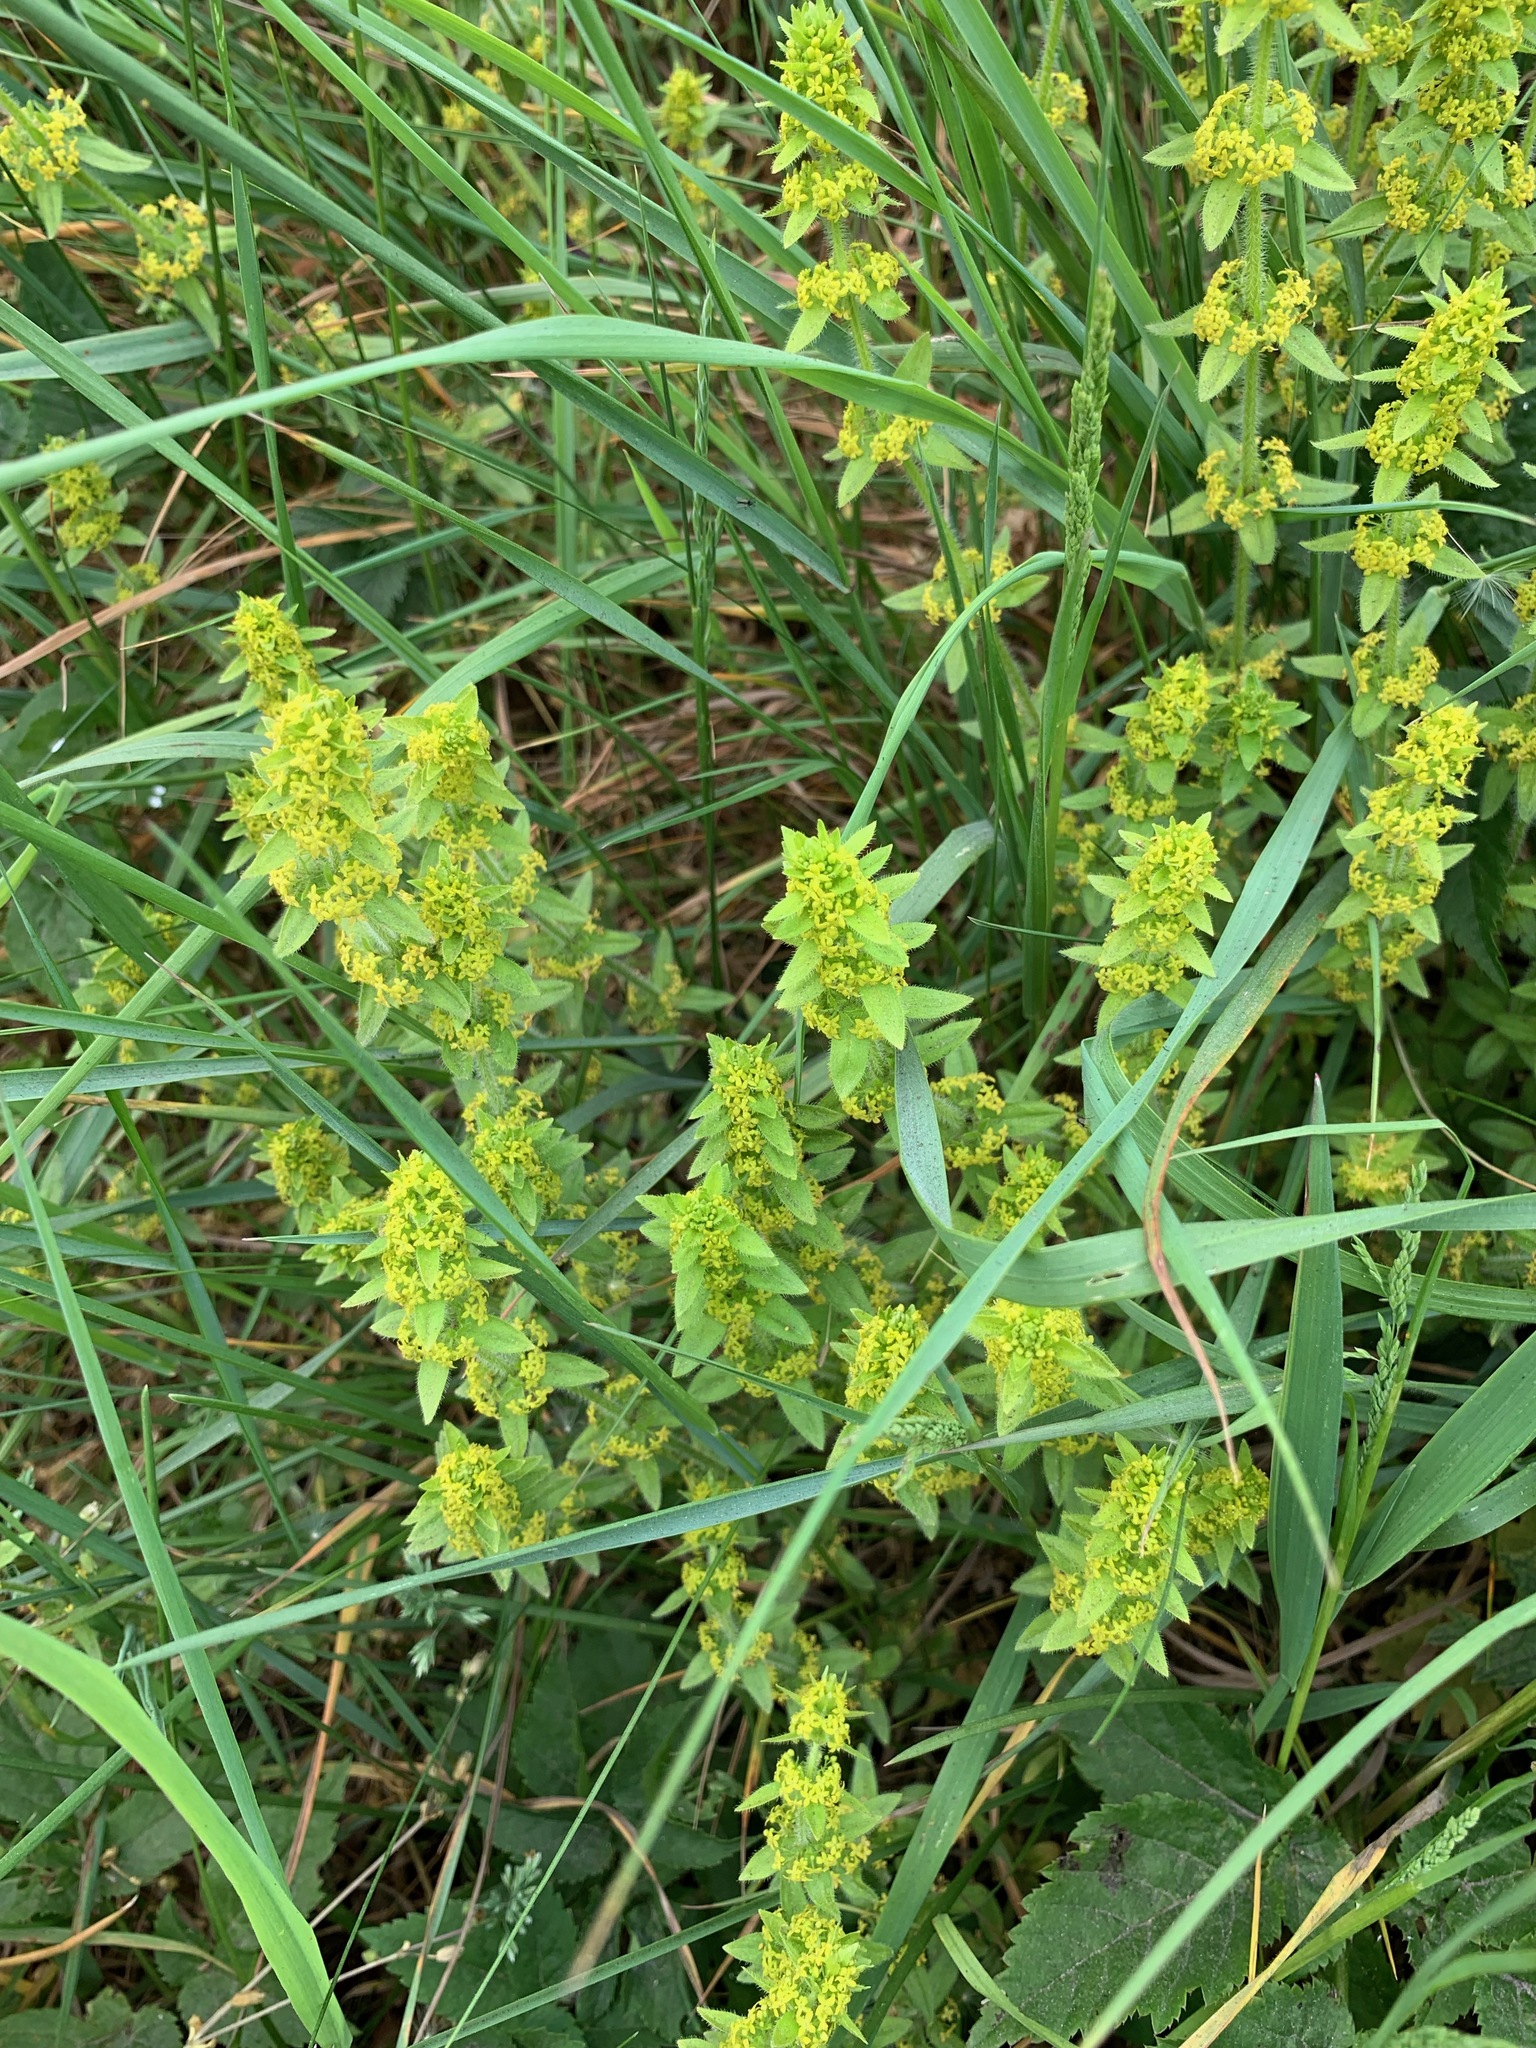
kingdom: Plantae
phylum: Tracheophyta
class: Magnoliopsida
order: Gentianales
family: Rubiaceae
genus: Cruciata
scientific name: Cruciata laevipes
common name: Crosswort
